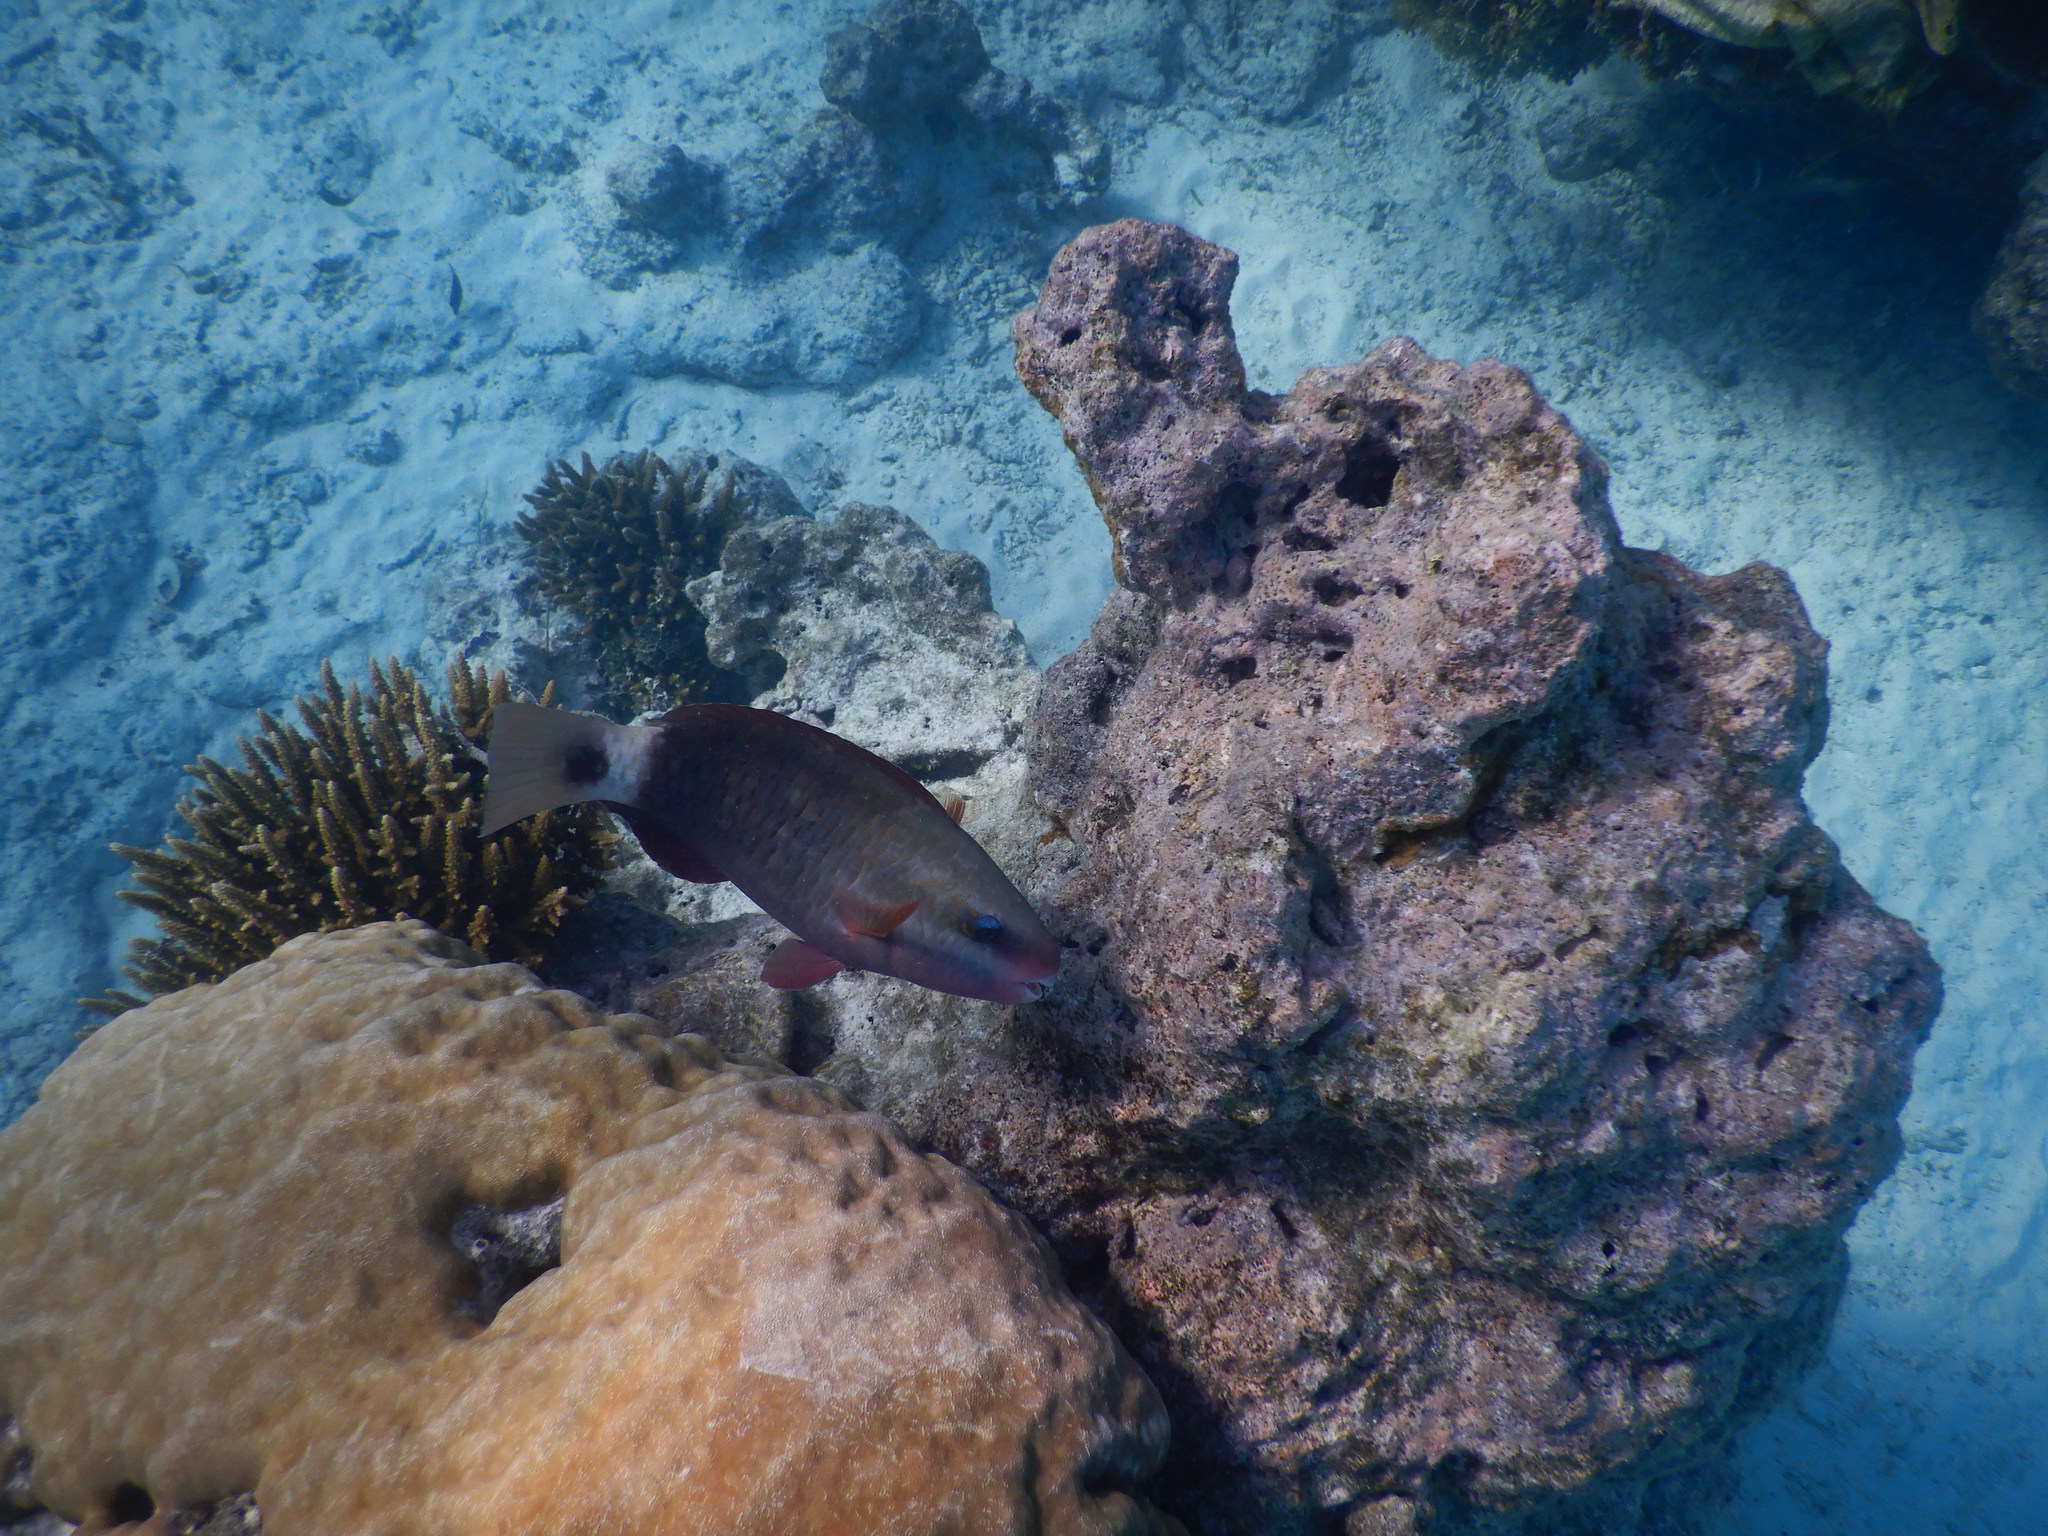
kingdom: Animalia
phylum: Chordata
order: Perciformes
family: Scaridae
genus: Chlorurus
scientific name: Chlorurus spilurus
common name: Bullethead parrotfish
